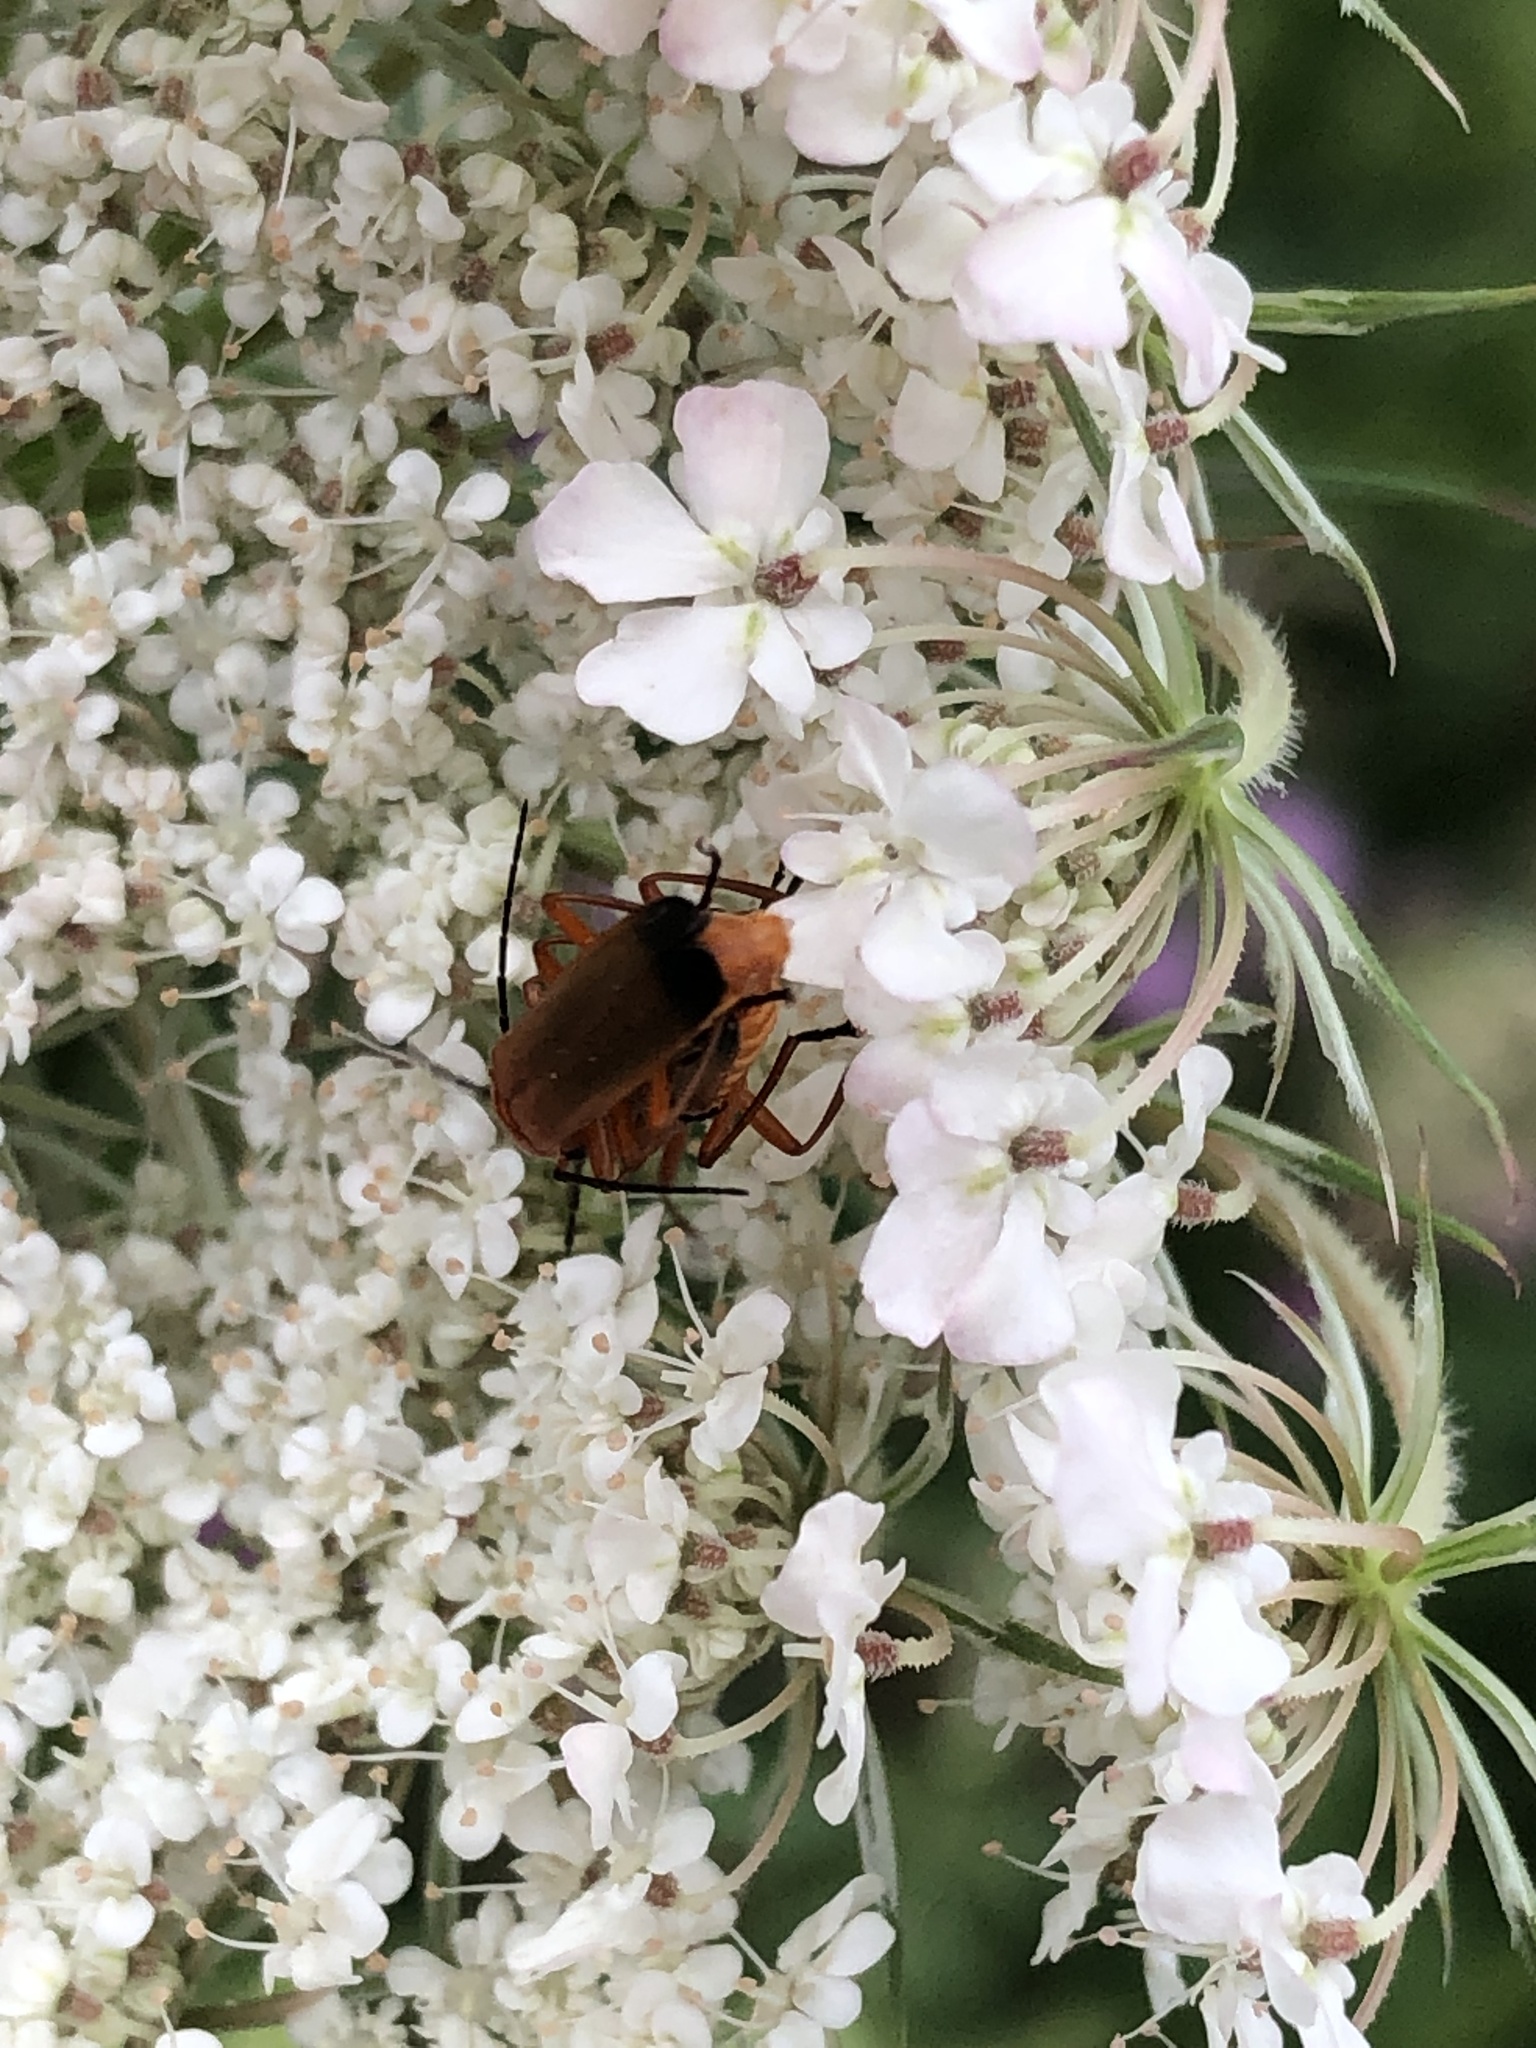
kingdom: Animalia
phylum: Arthropoda
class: Insecta
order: Coleoptera
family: Cantharidae
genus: Rhagonycha
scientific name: Rhagonycha fulva
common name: Common red soldier beetle
